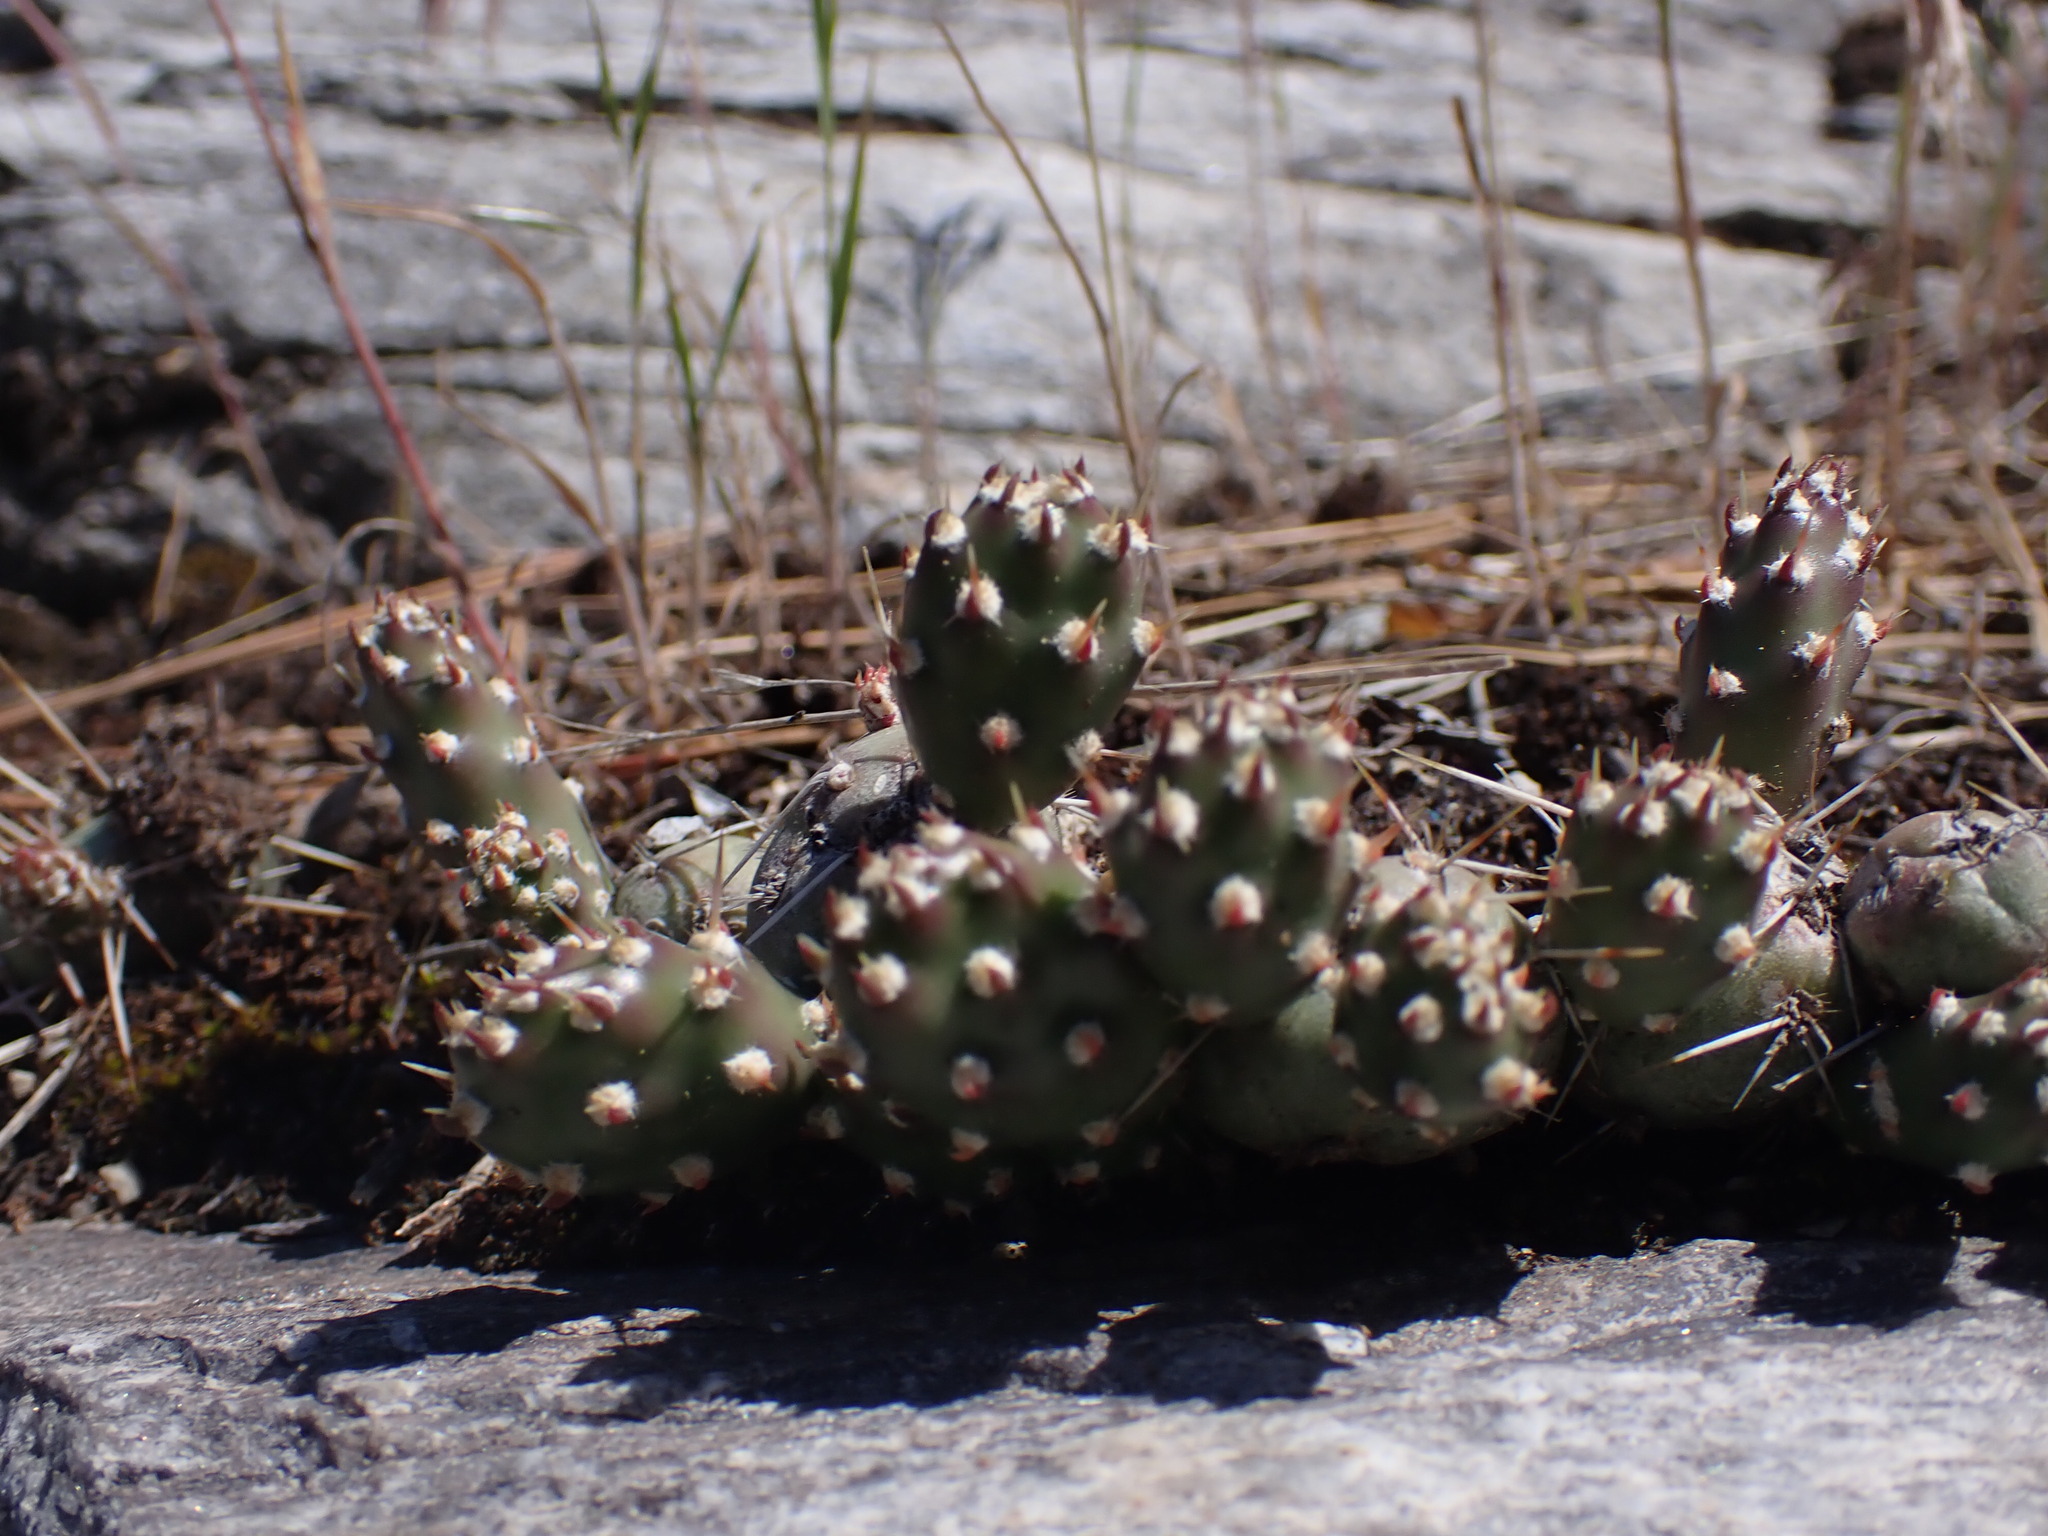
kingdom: Plantae
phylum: Tracheophyta
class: Magnoliopsida
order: Caryophyllales
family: Cactaceae
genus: Opuntia
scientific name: Opuntia fragilis
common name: Brittle cactus
